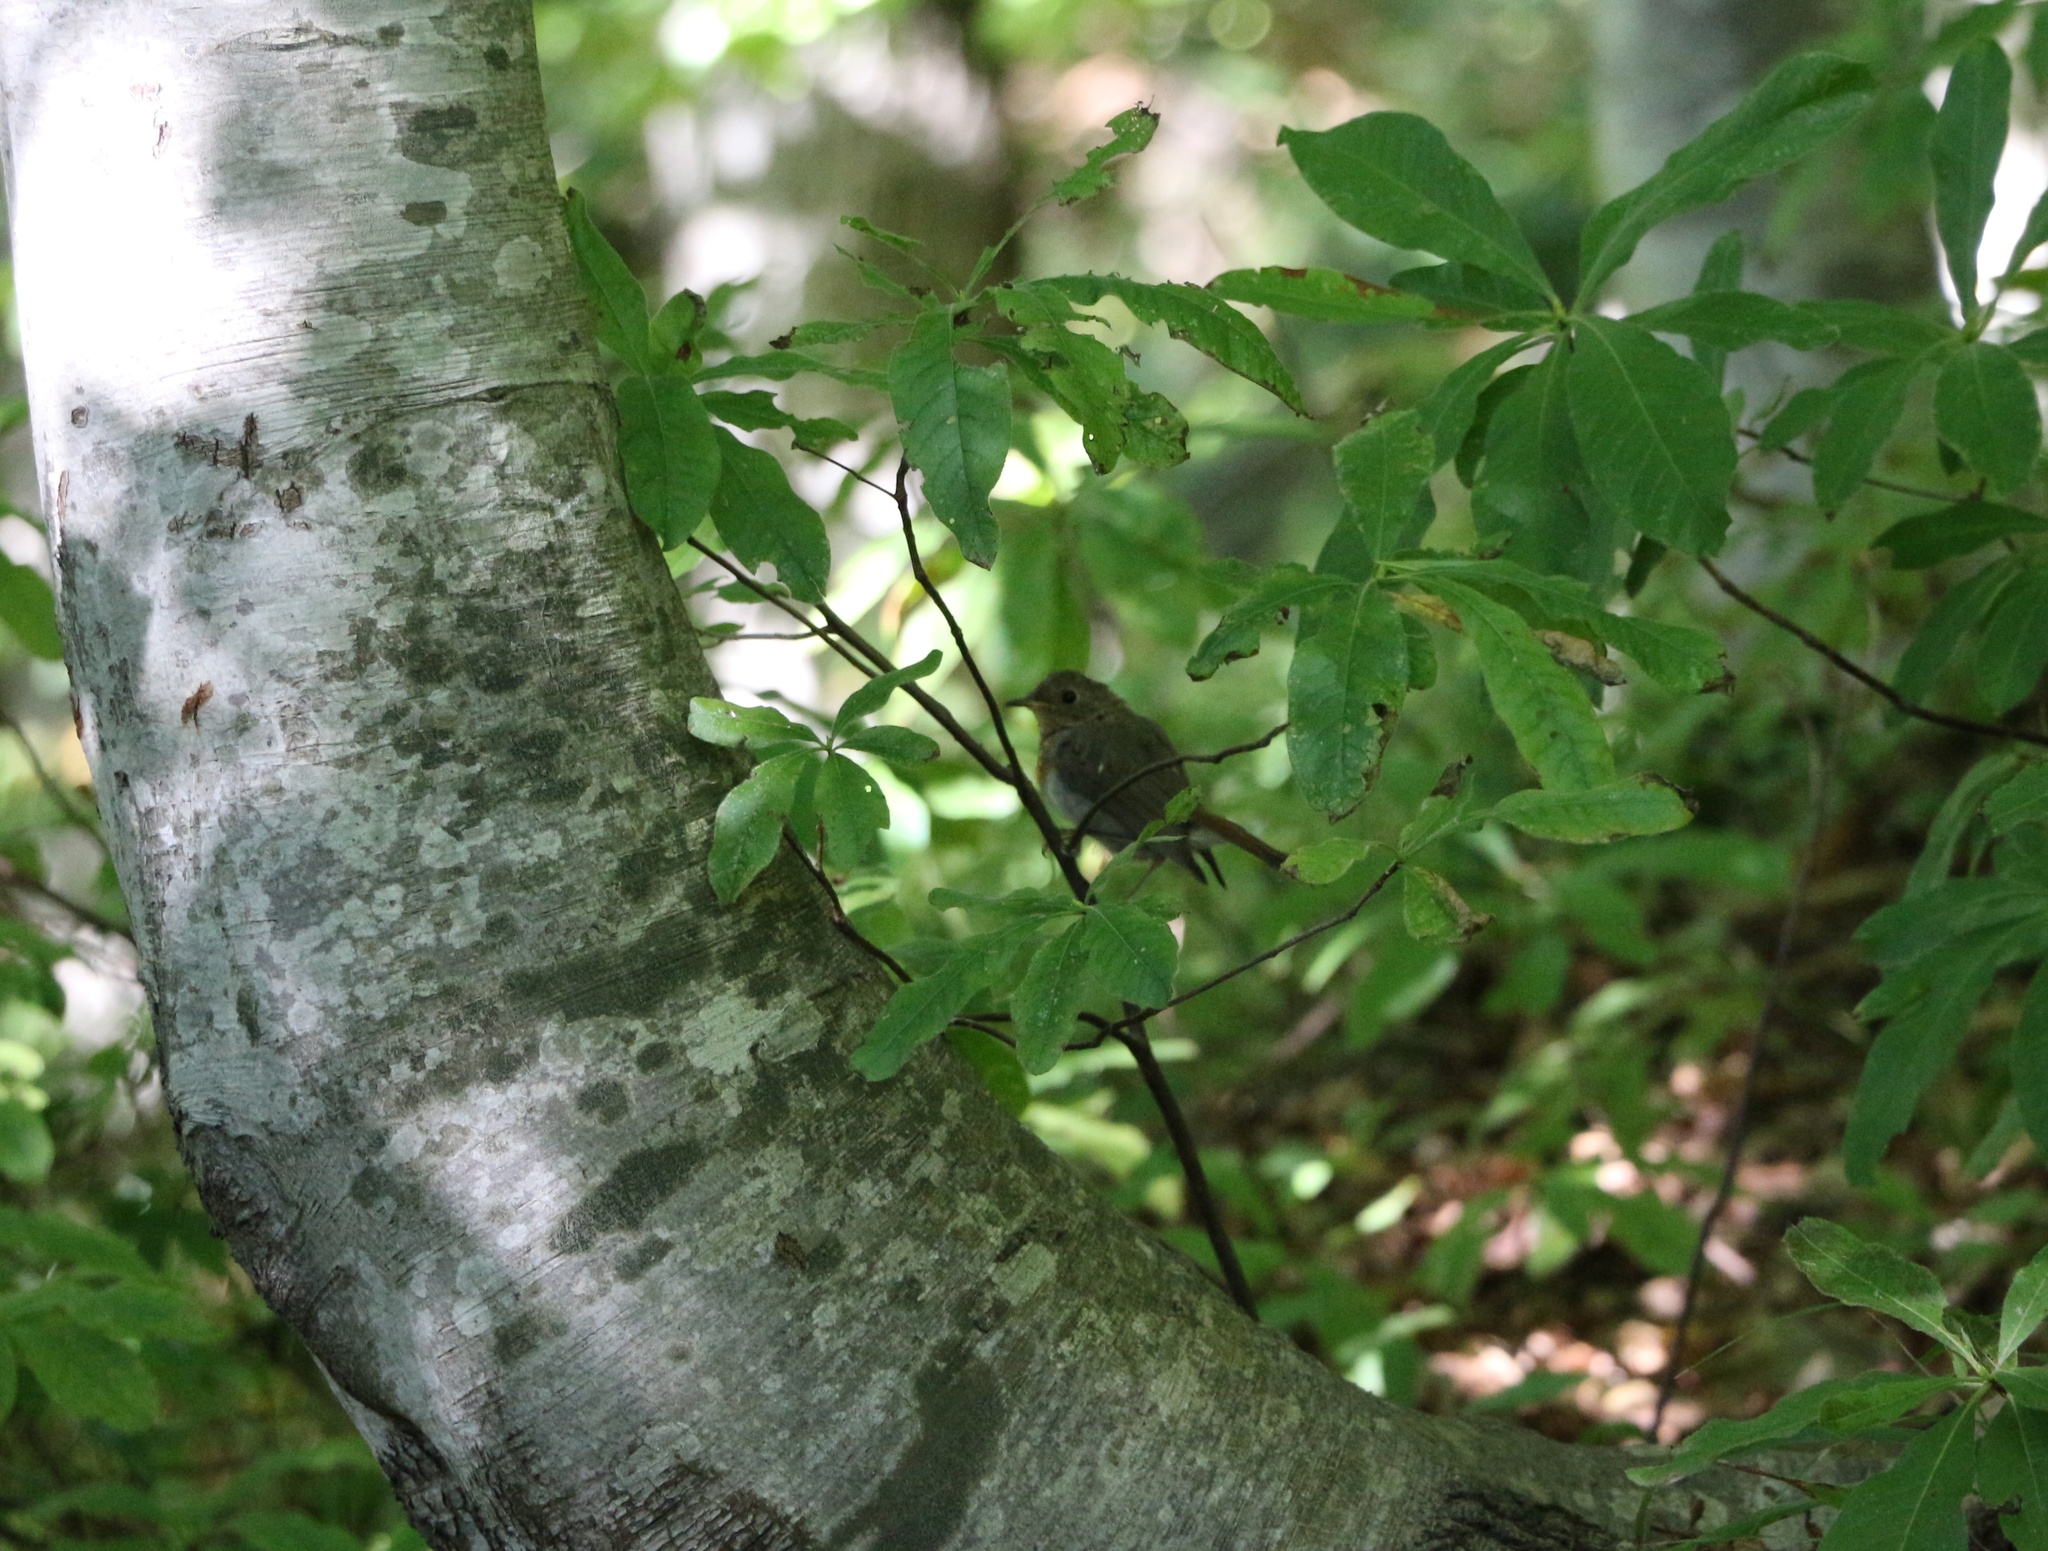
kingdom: Animalia
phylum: Chordata
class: Aves
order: Passeriformes
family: Muscicapidae
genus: Erithacus
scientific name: Erithacus rubecula
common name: European robin
